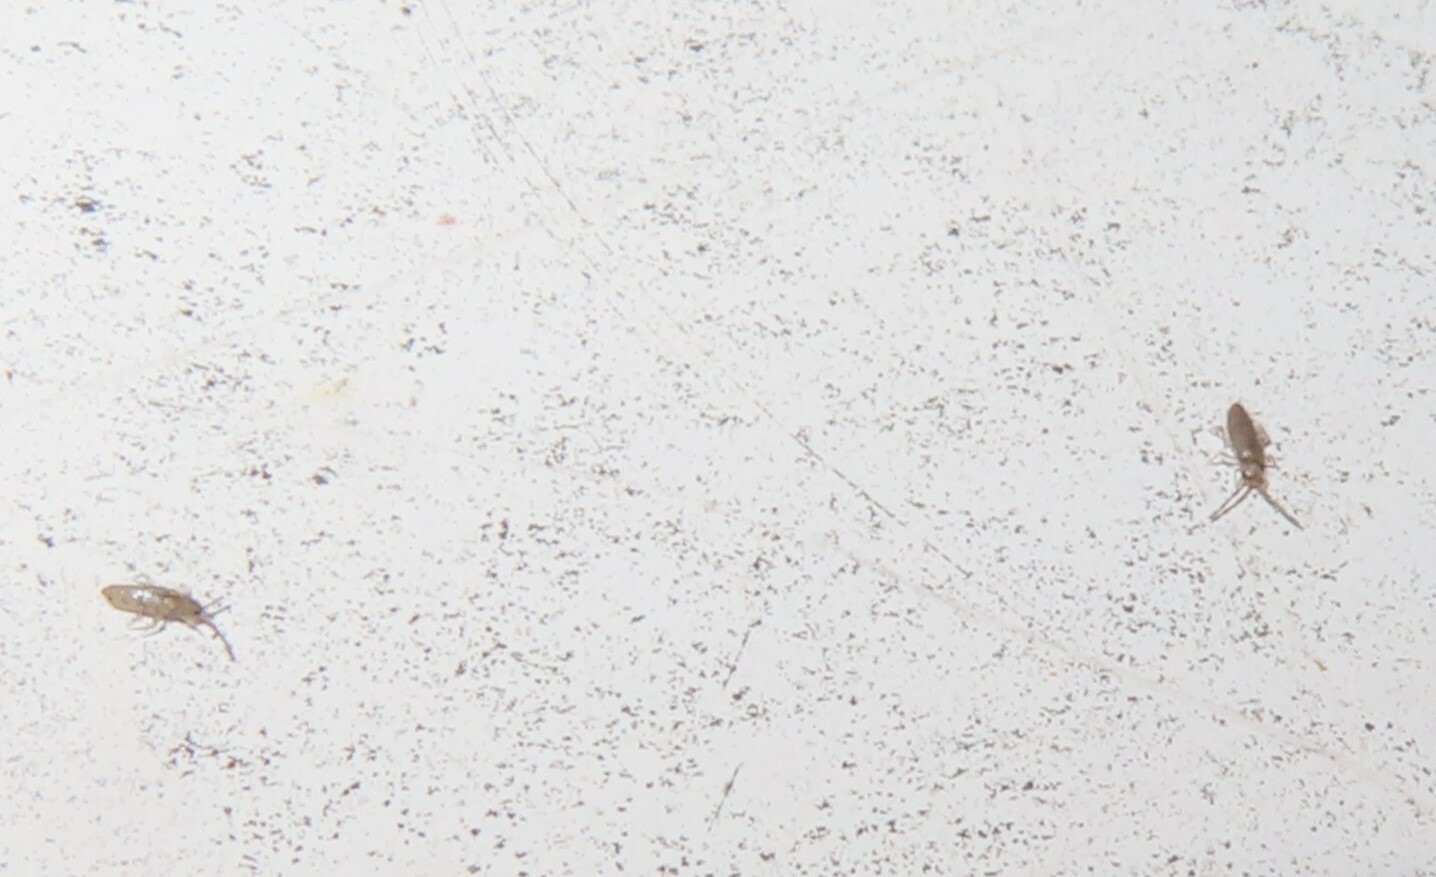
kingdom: Animalia
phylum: Arthropoda
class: Collembola
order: Entomobryomorpha
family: Entomobryidae
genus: Willowsia
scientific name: Willowsia nigromaculata
